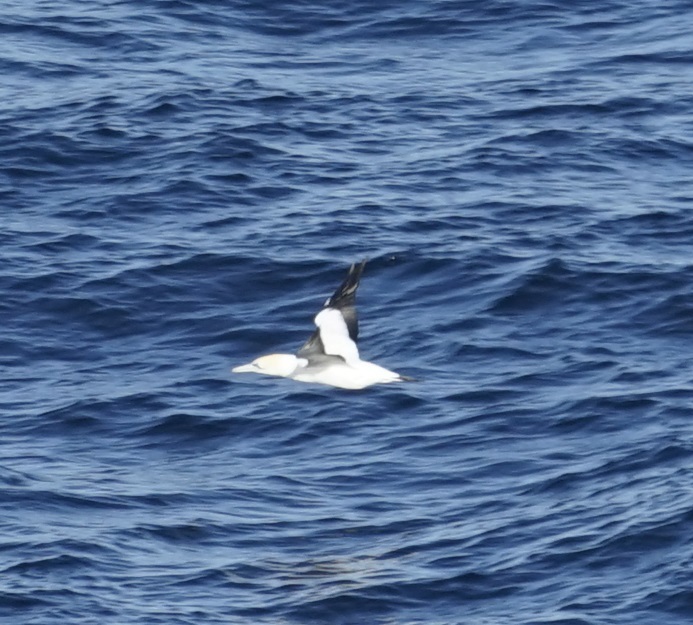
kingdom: Animalia
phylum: Chordata
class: Aves
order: Suliformes
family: Sulidae
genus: Morus
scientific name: Morus serrator
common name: Australasian gannet
